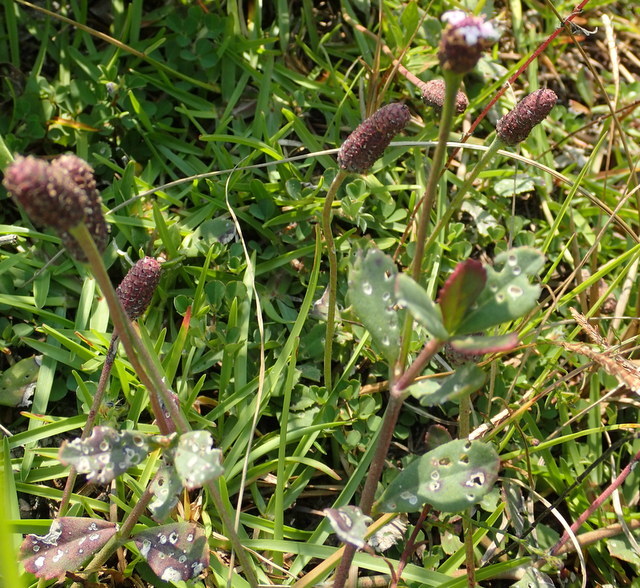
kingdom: Plantae
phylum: Tracheophyta
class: Magnoliopsida
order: Lamiales
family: Verbenaceae
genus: Phyla
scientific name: Phyla nodiflora
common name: Frogfruit
